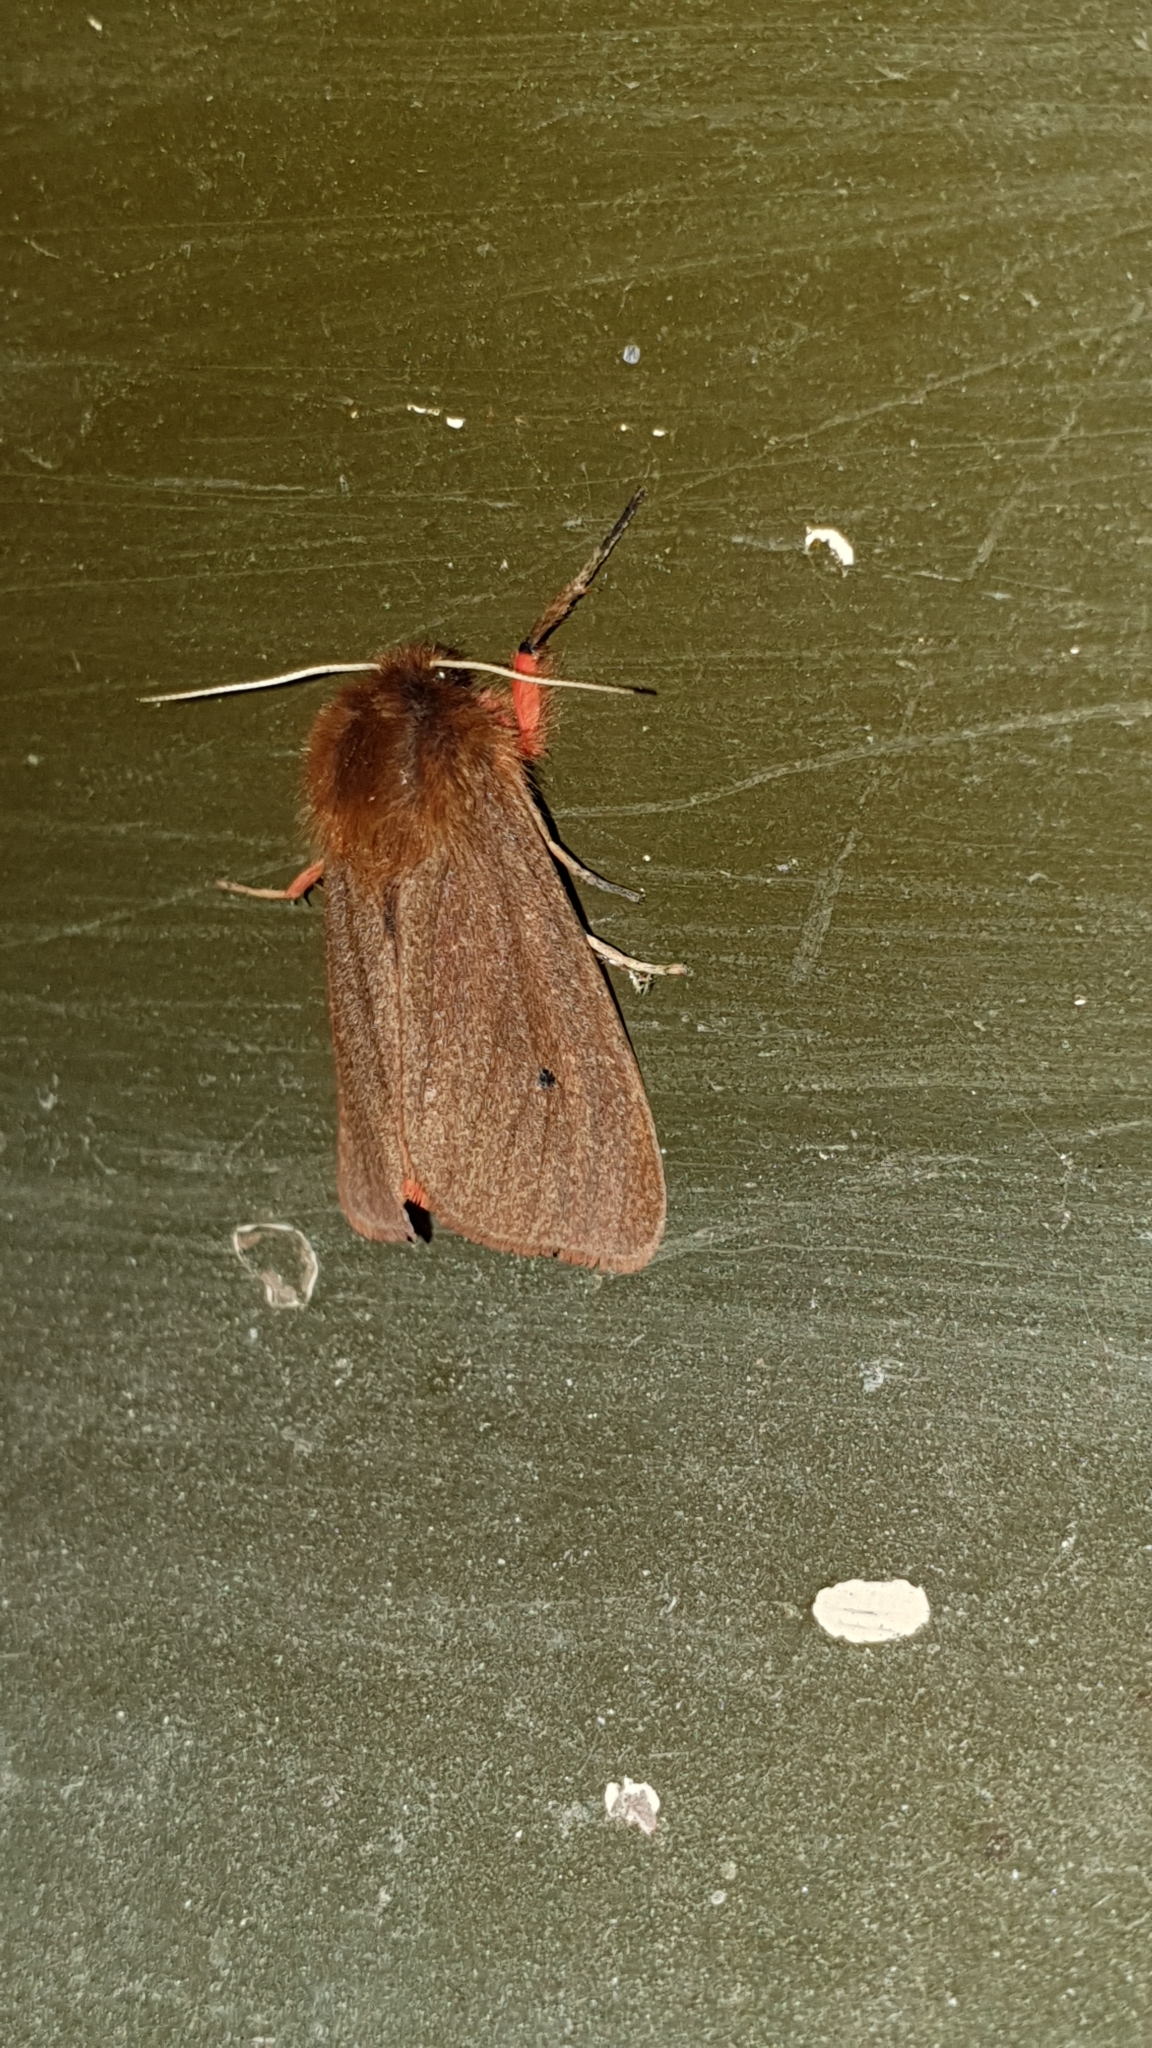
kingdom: Animalia
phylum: Arthropoda
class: Insecta
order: Lepidoptera
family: Erebidae
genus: Phragmatobia
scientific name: Phragmatobia fuliginosa
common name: Ruby tiger
